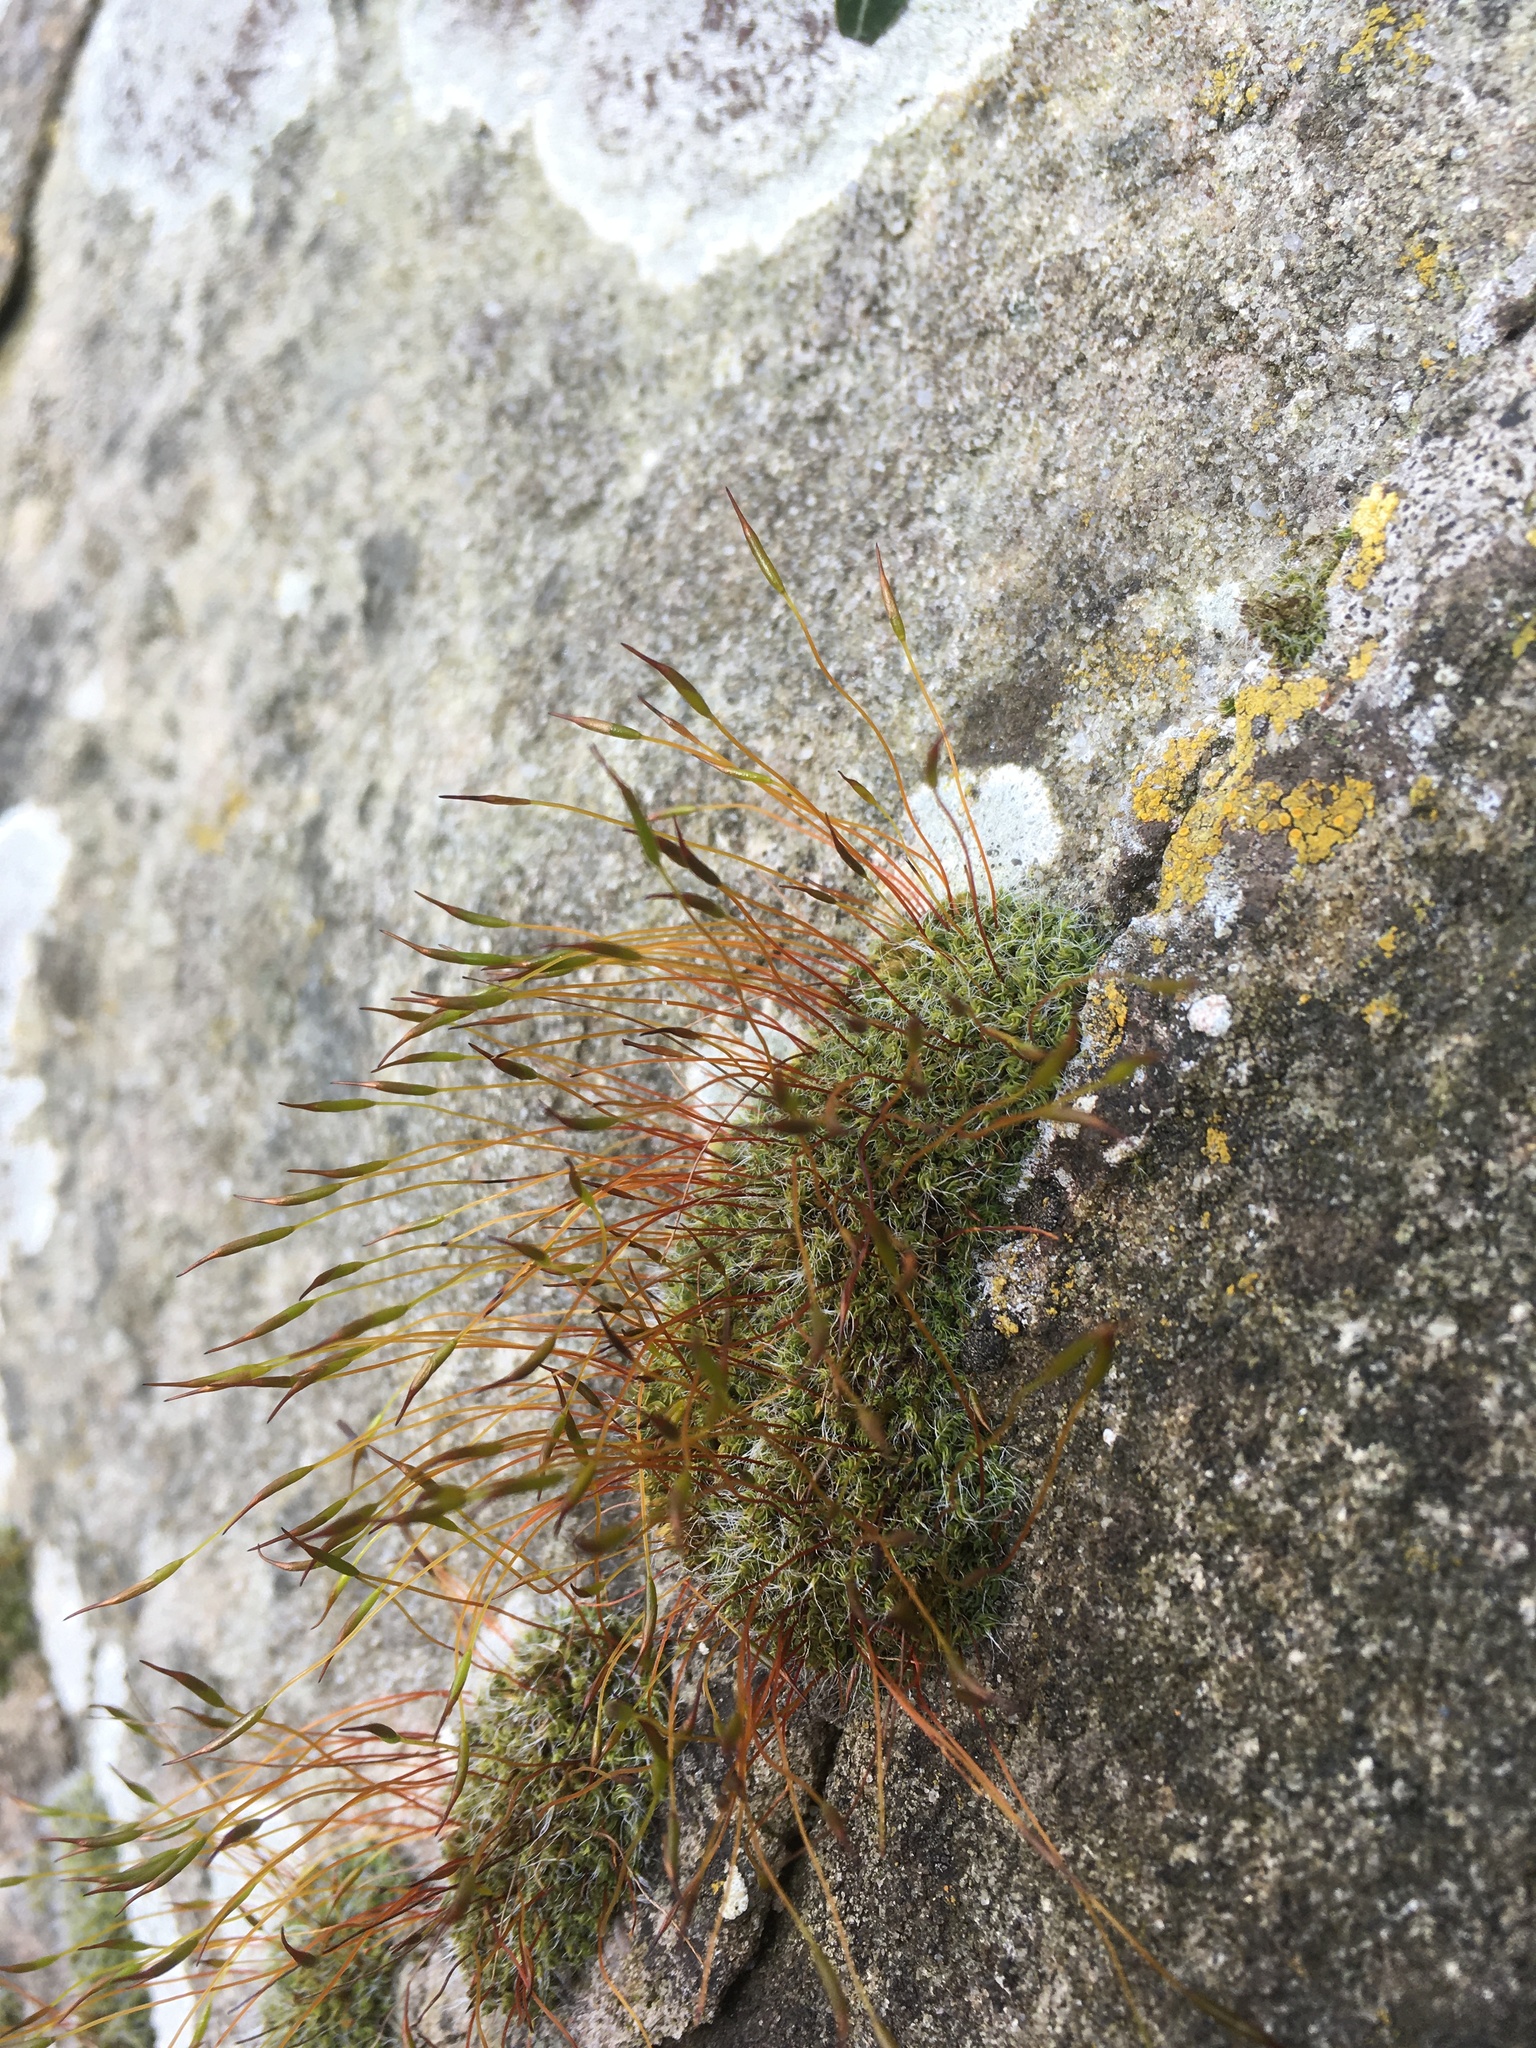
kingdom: Plantae
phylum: Bryophyta
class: Bryopsida
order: Pottiales
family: Pottiaceae
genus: Tortula
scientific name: Tortula muralis
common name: Wall screw-moss
